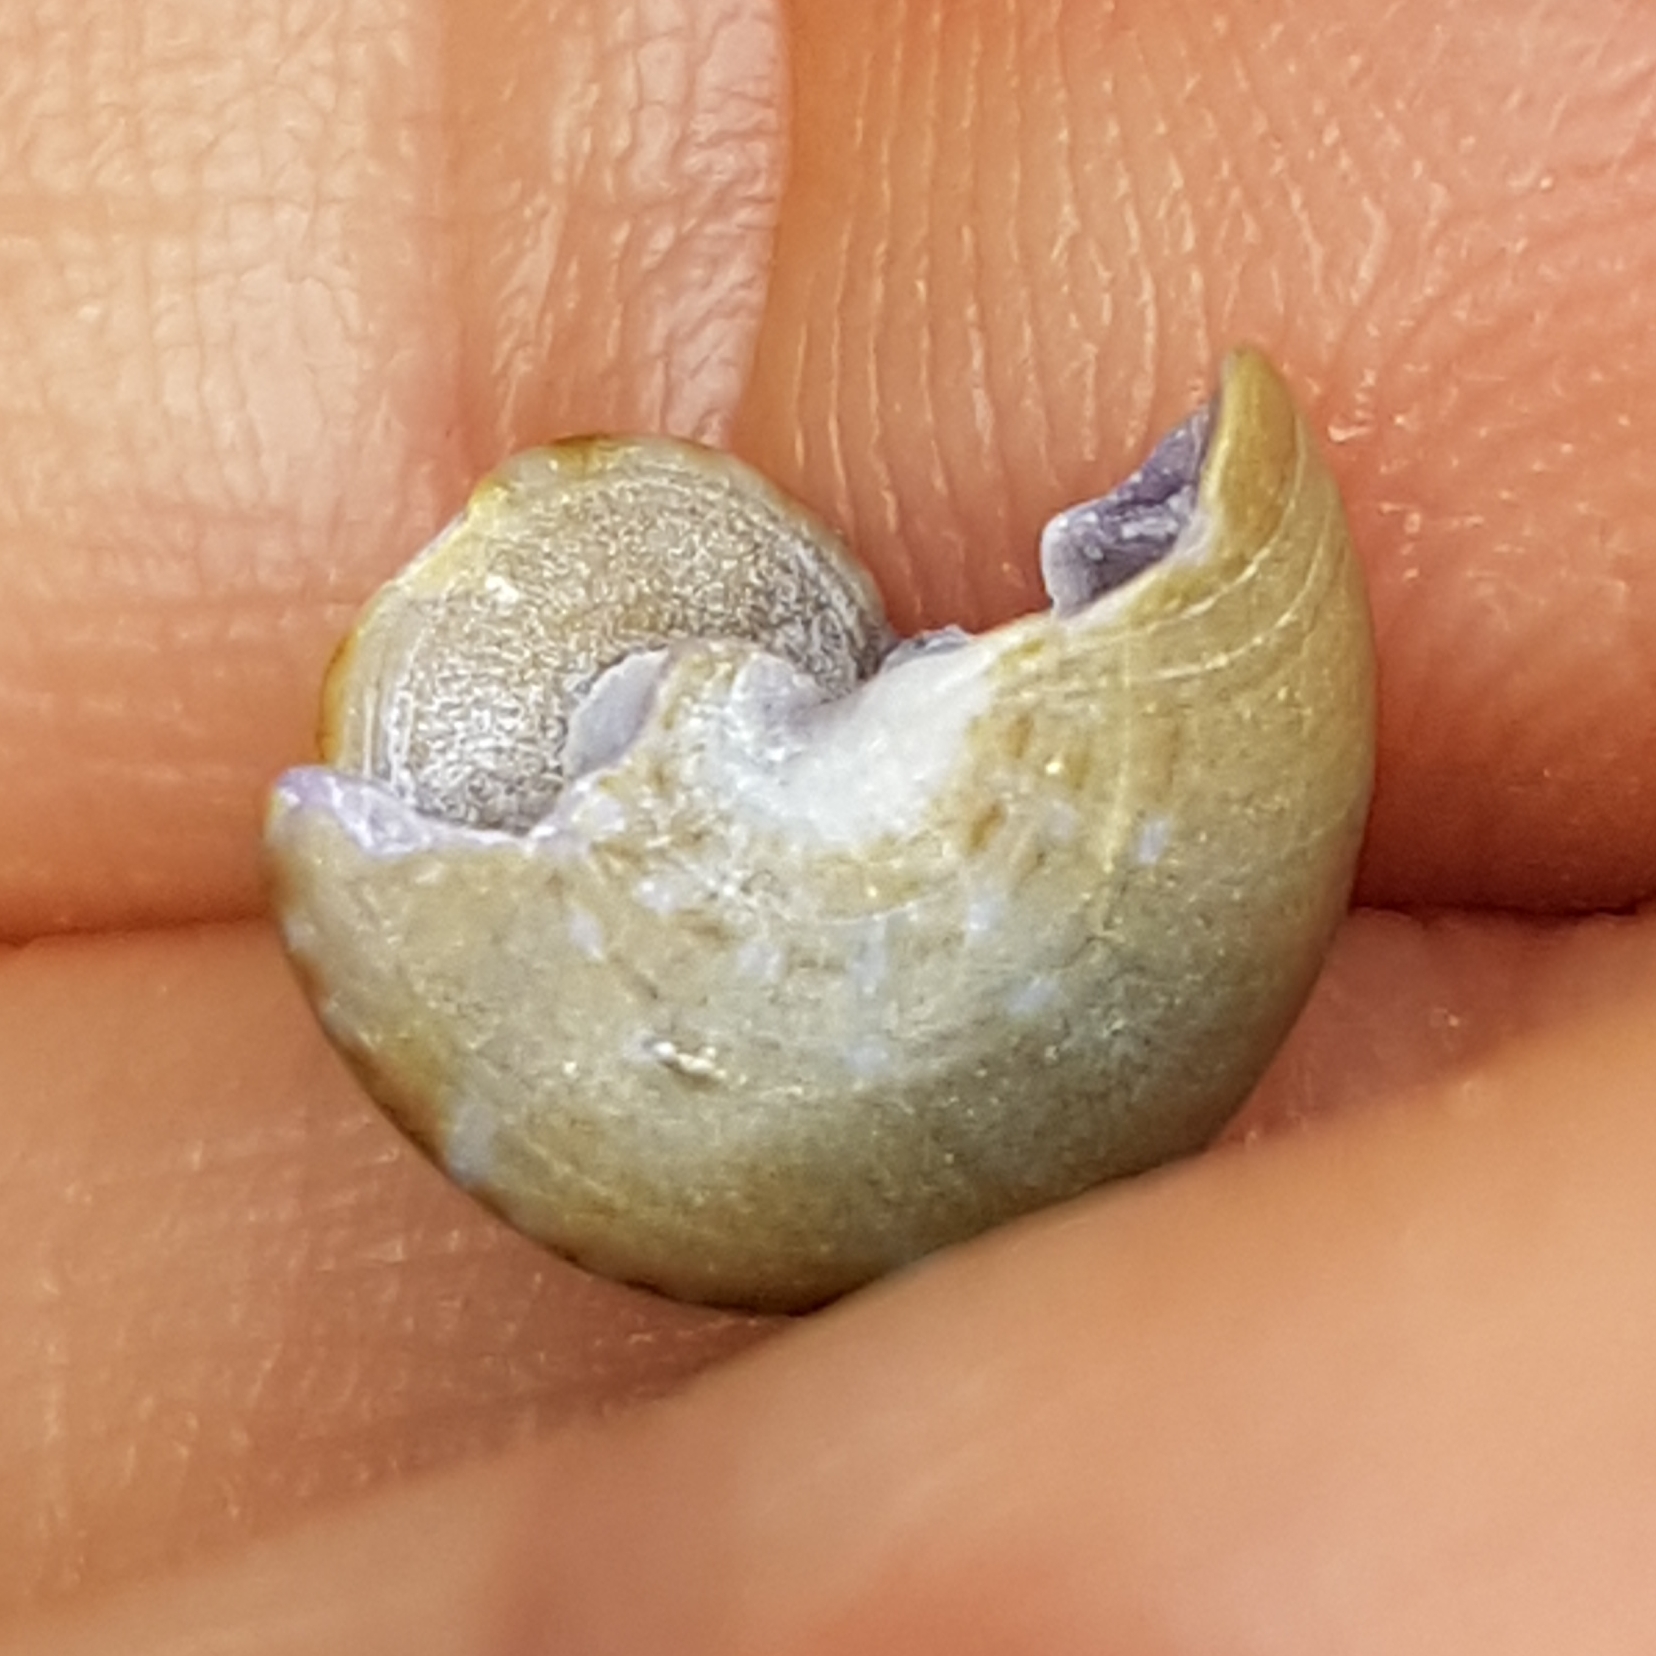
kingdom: Animalia
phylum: Mollusca
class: Gastropoda
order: Trochida
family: Calliostomatidae
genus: Calliostoma
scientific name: Calliostoma laugieri
